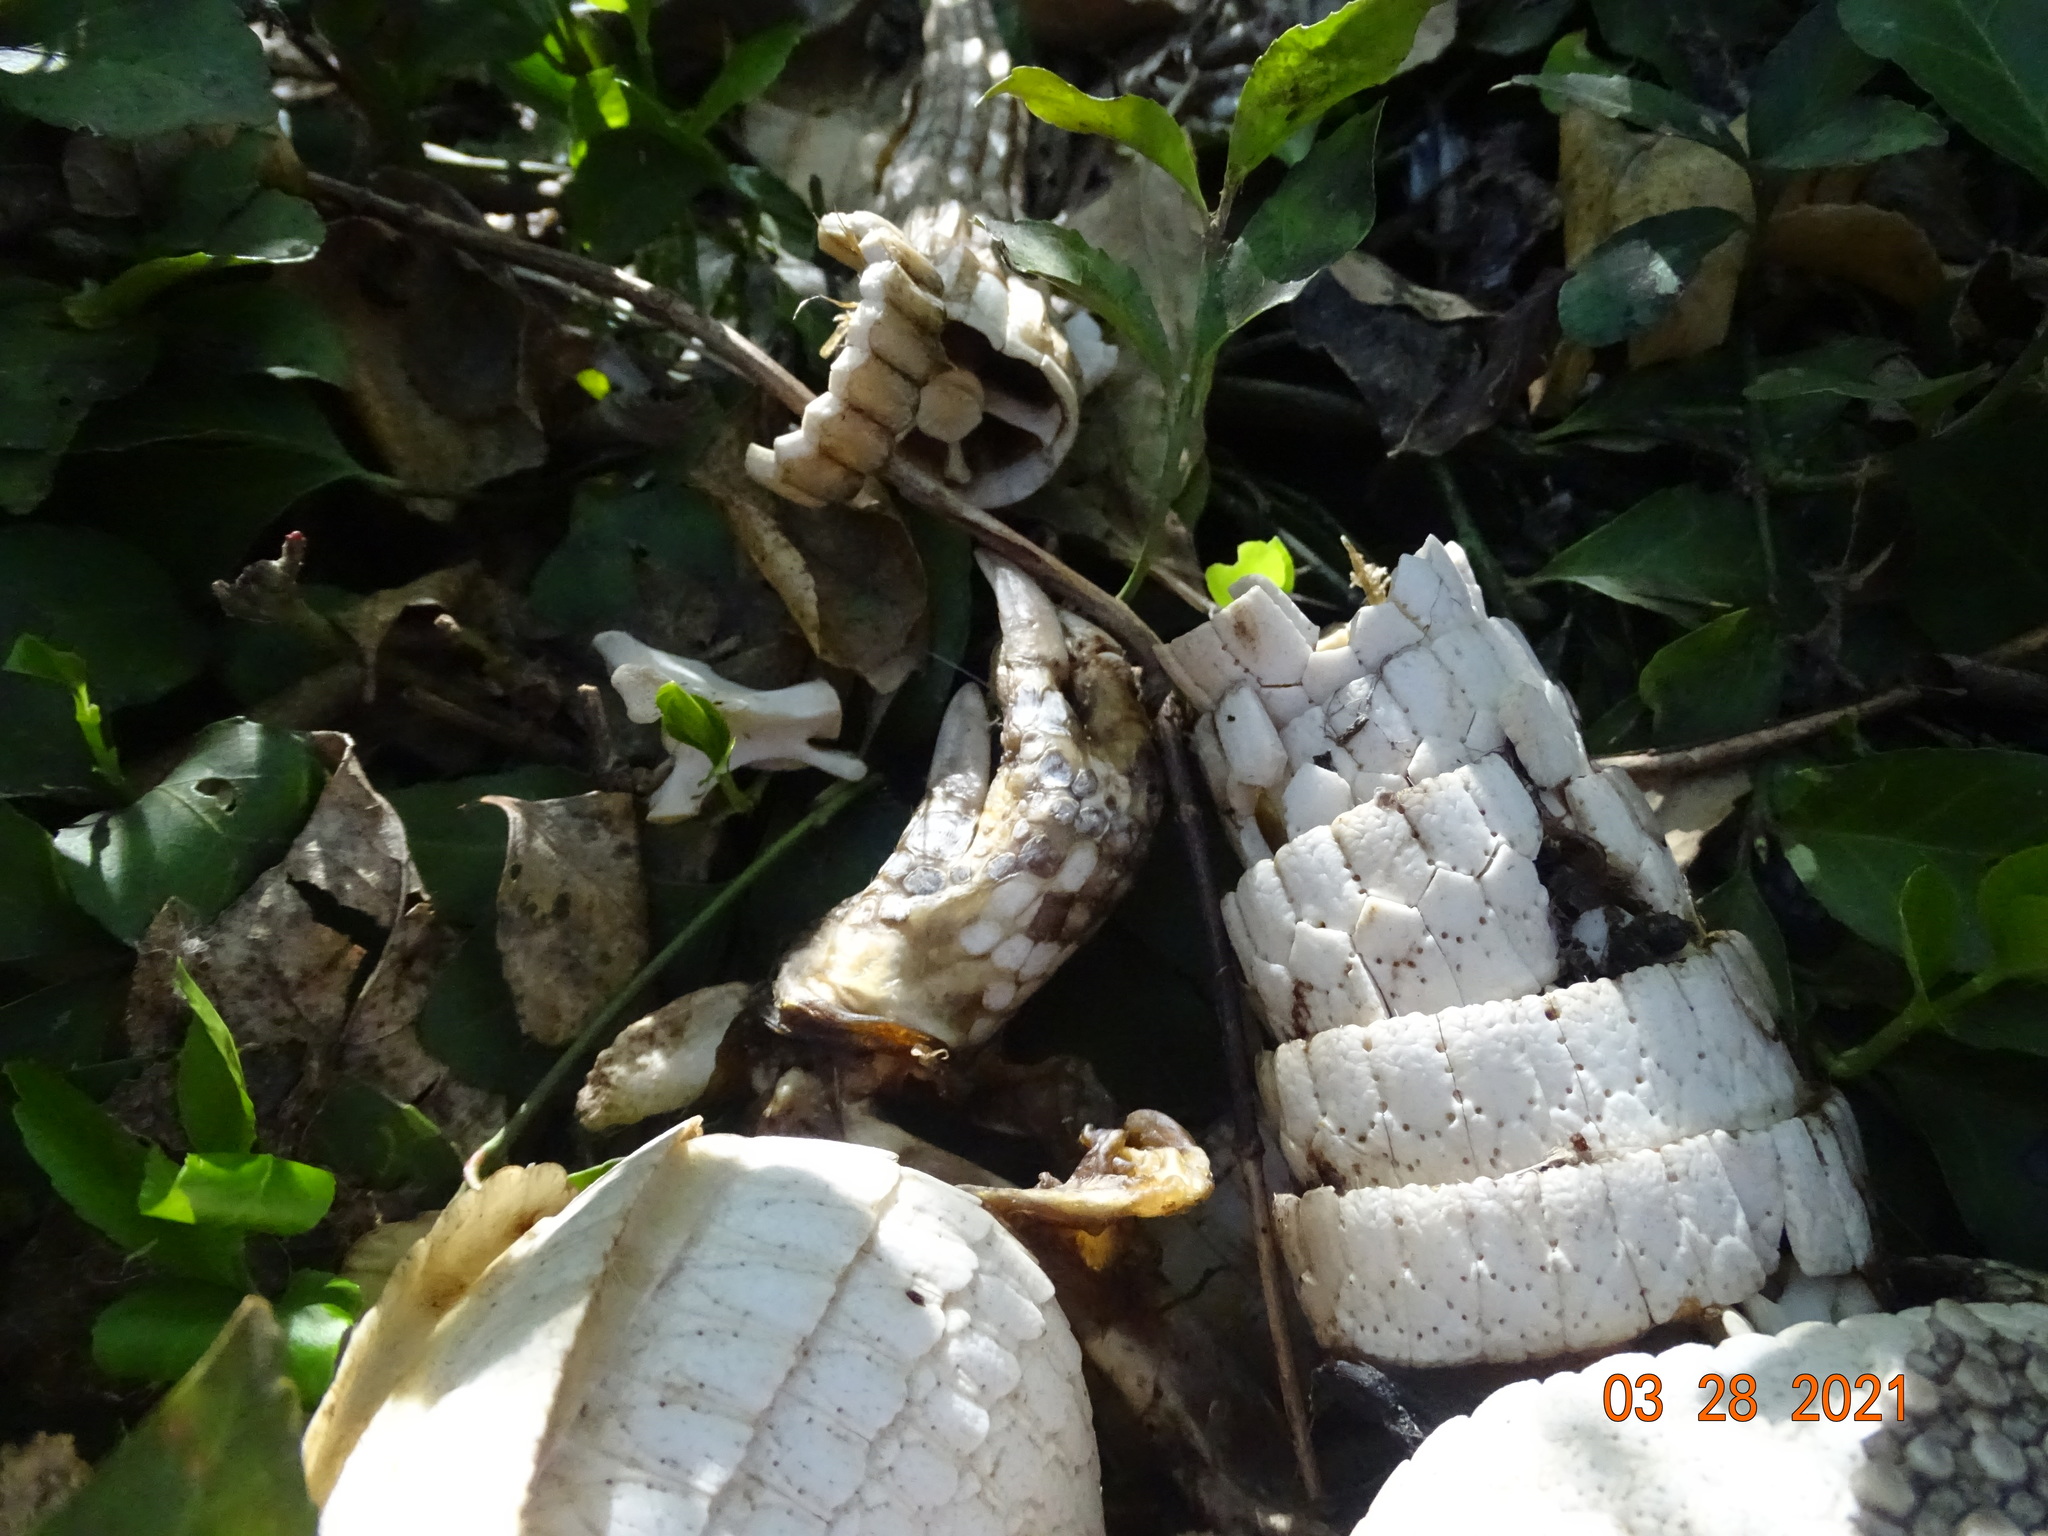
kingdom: Animalia
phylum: Chordata
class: Mammalia
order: Cingulata
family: Dasypodidae
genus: Dasypus
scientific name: Dasypus novemcinctus
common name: Nine-banded armadillo
